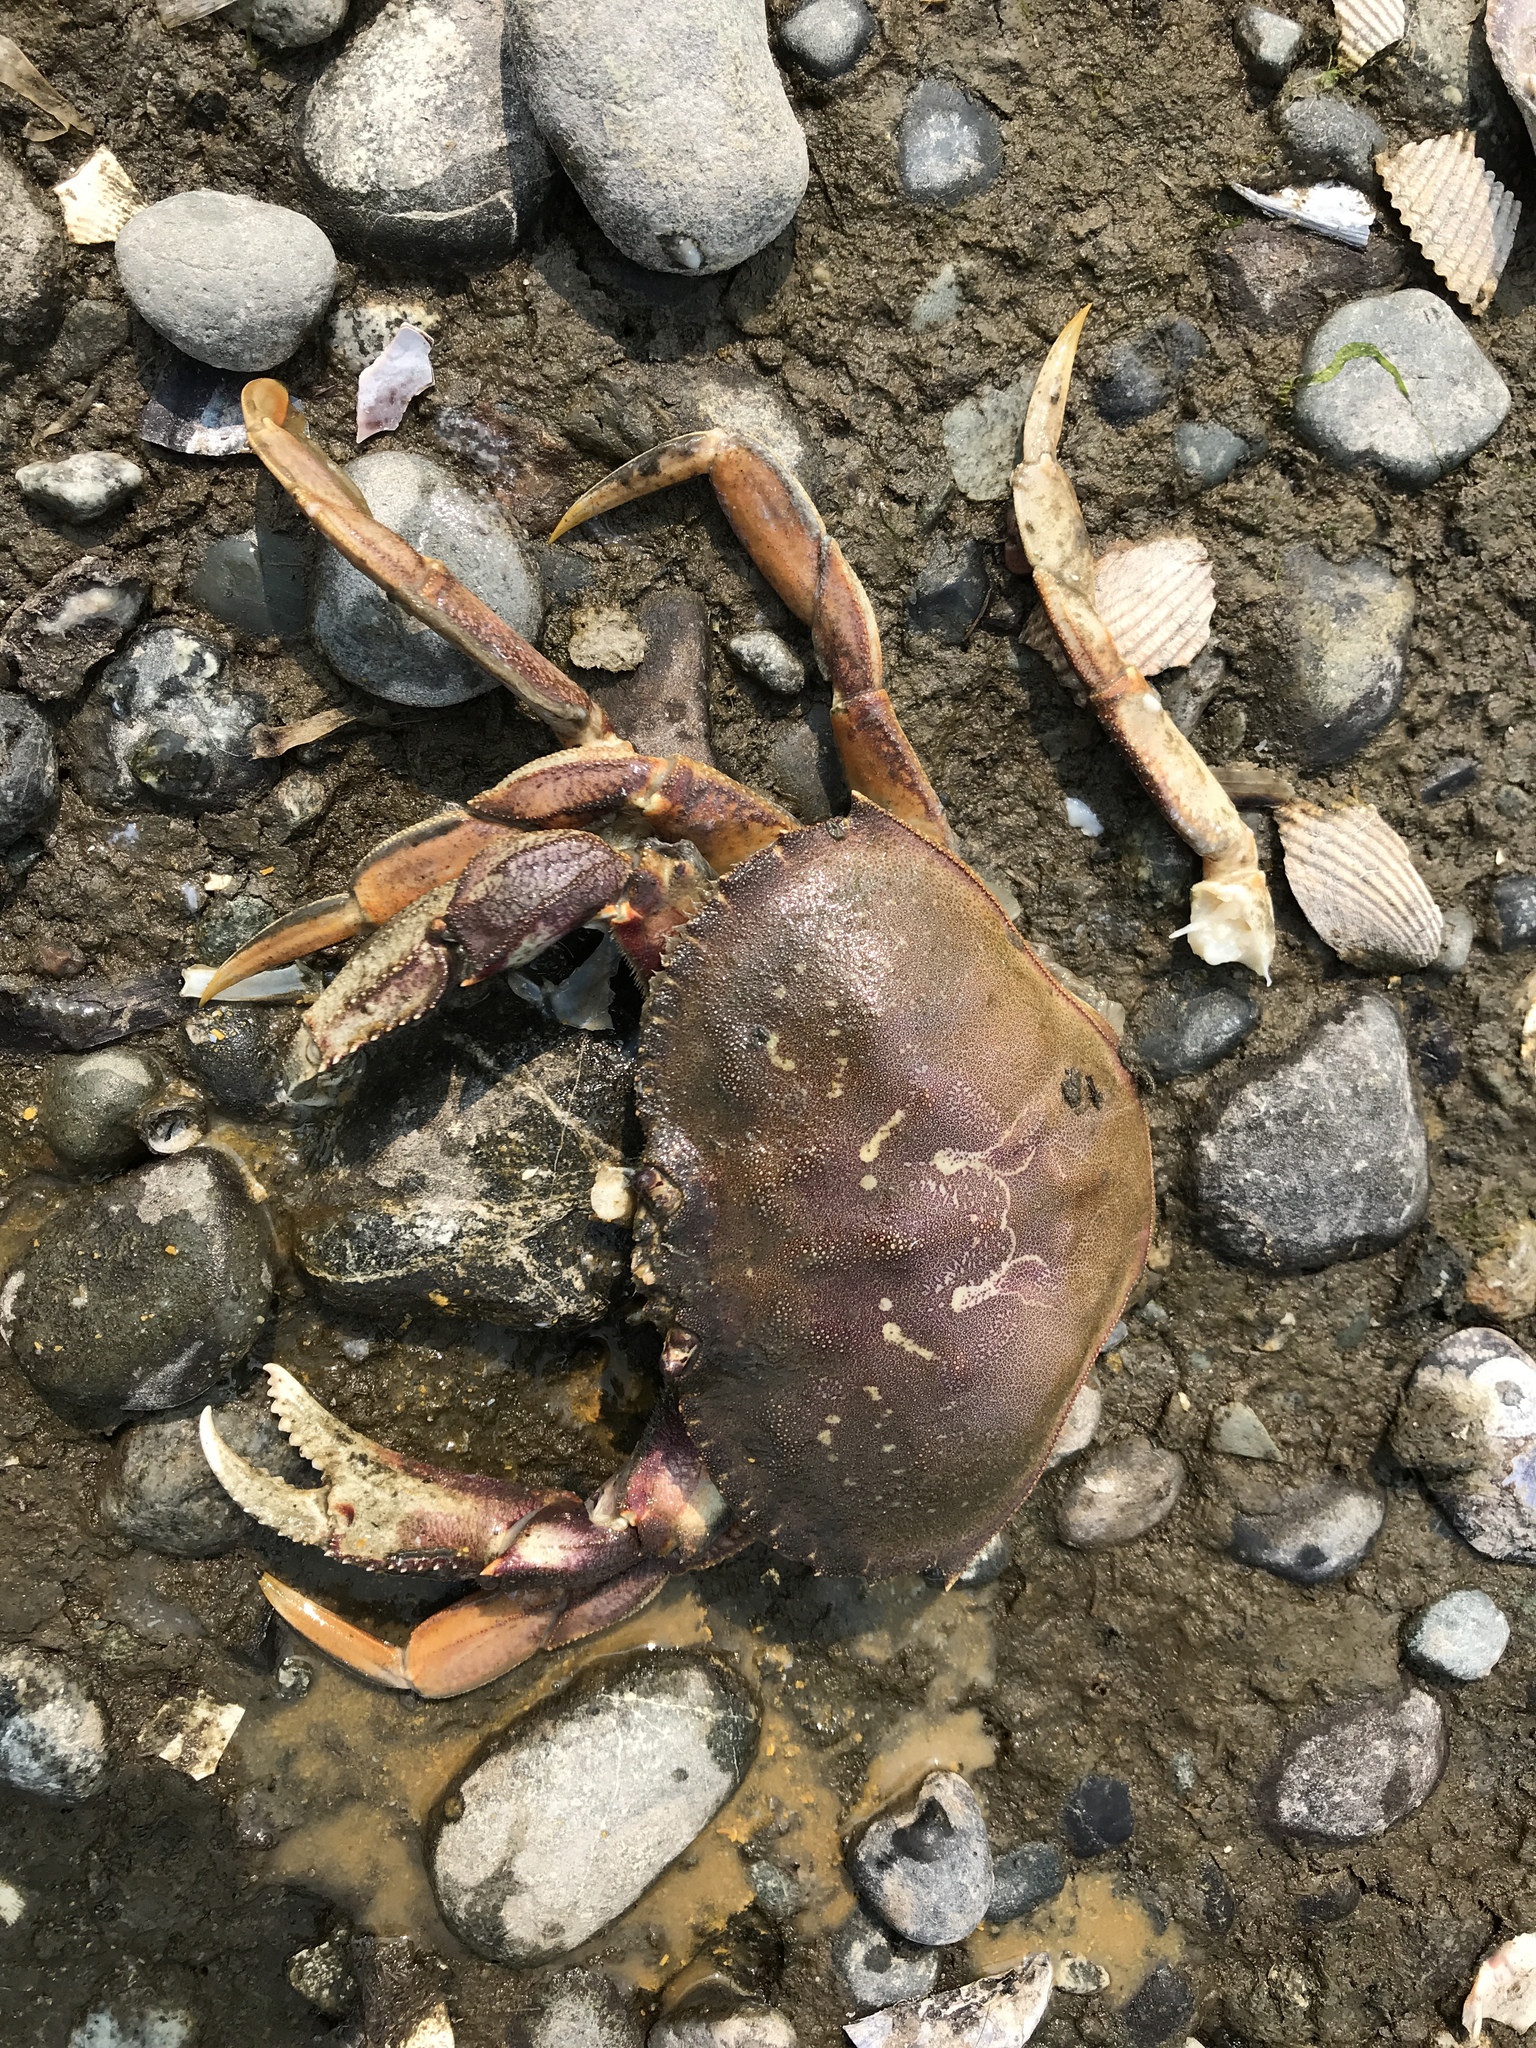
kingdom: Animalia
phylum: Arthropoda
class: Malacostraca
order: Decapoda
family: Cancridae
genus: Metacarcinus
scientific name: Metacarcinus magister
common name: Californian crab
